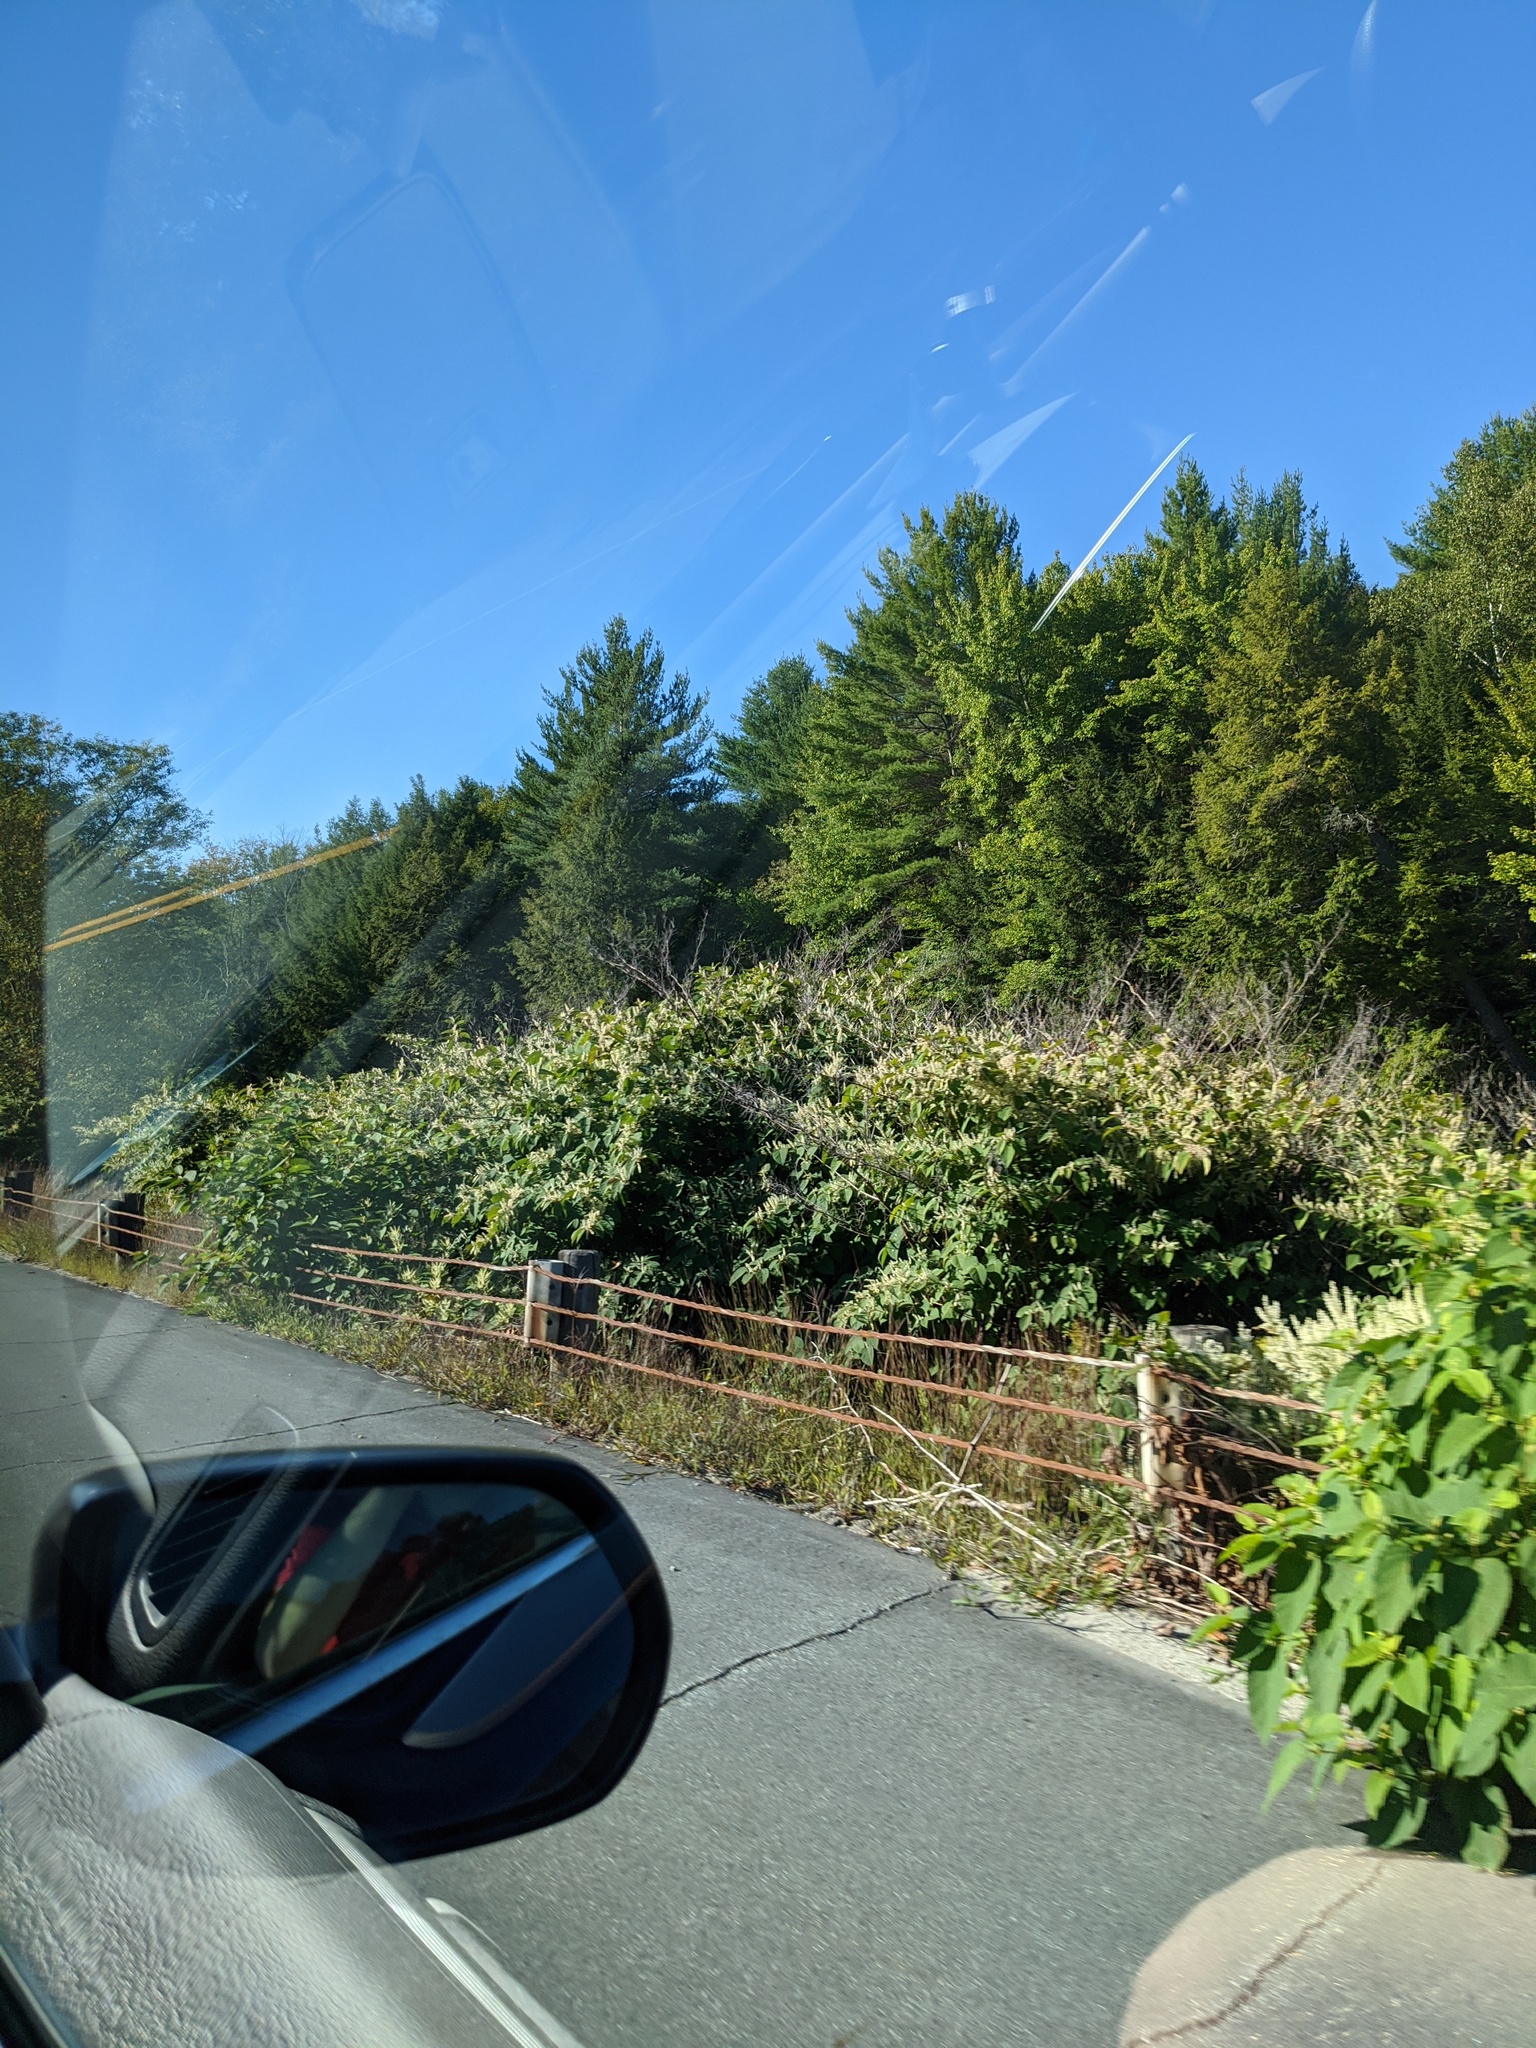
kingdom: Plantae
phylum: Tracheophyta
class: Magnoliopsida
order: Caryophyllales
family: Polygonaceae
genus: Reynoutria
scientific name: Reynoutria japonica
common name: Japanese knotweed
